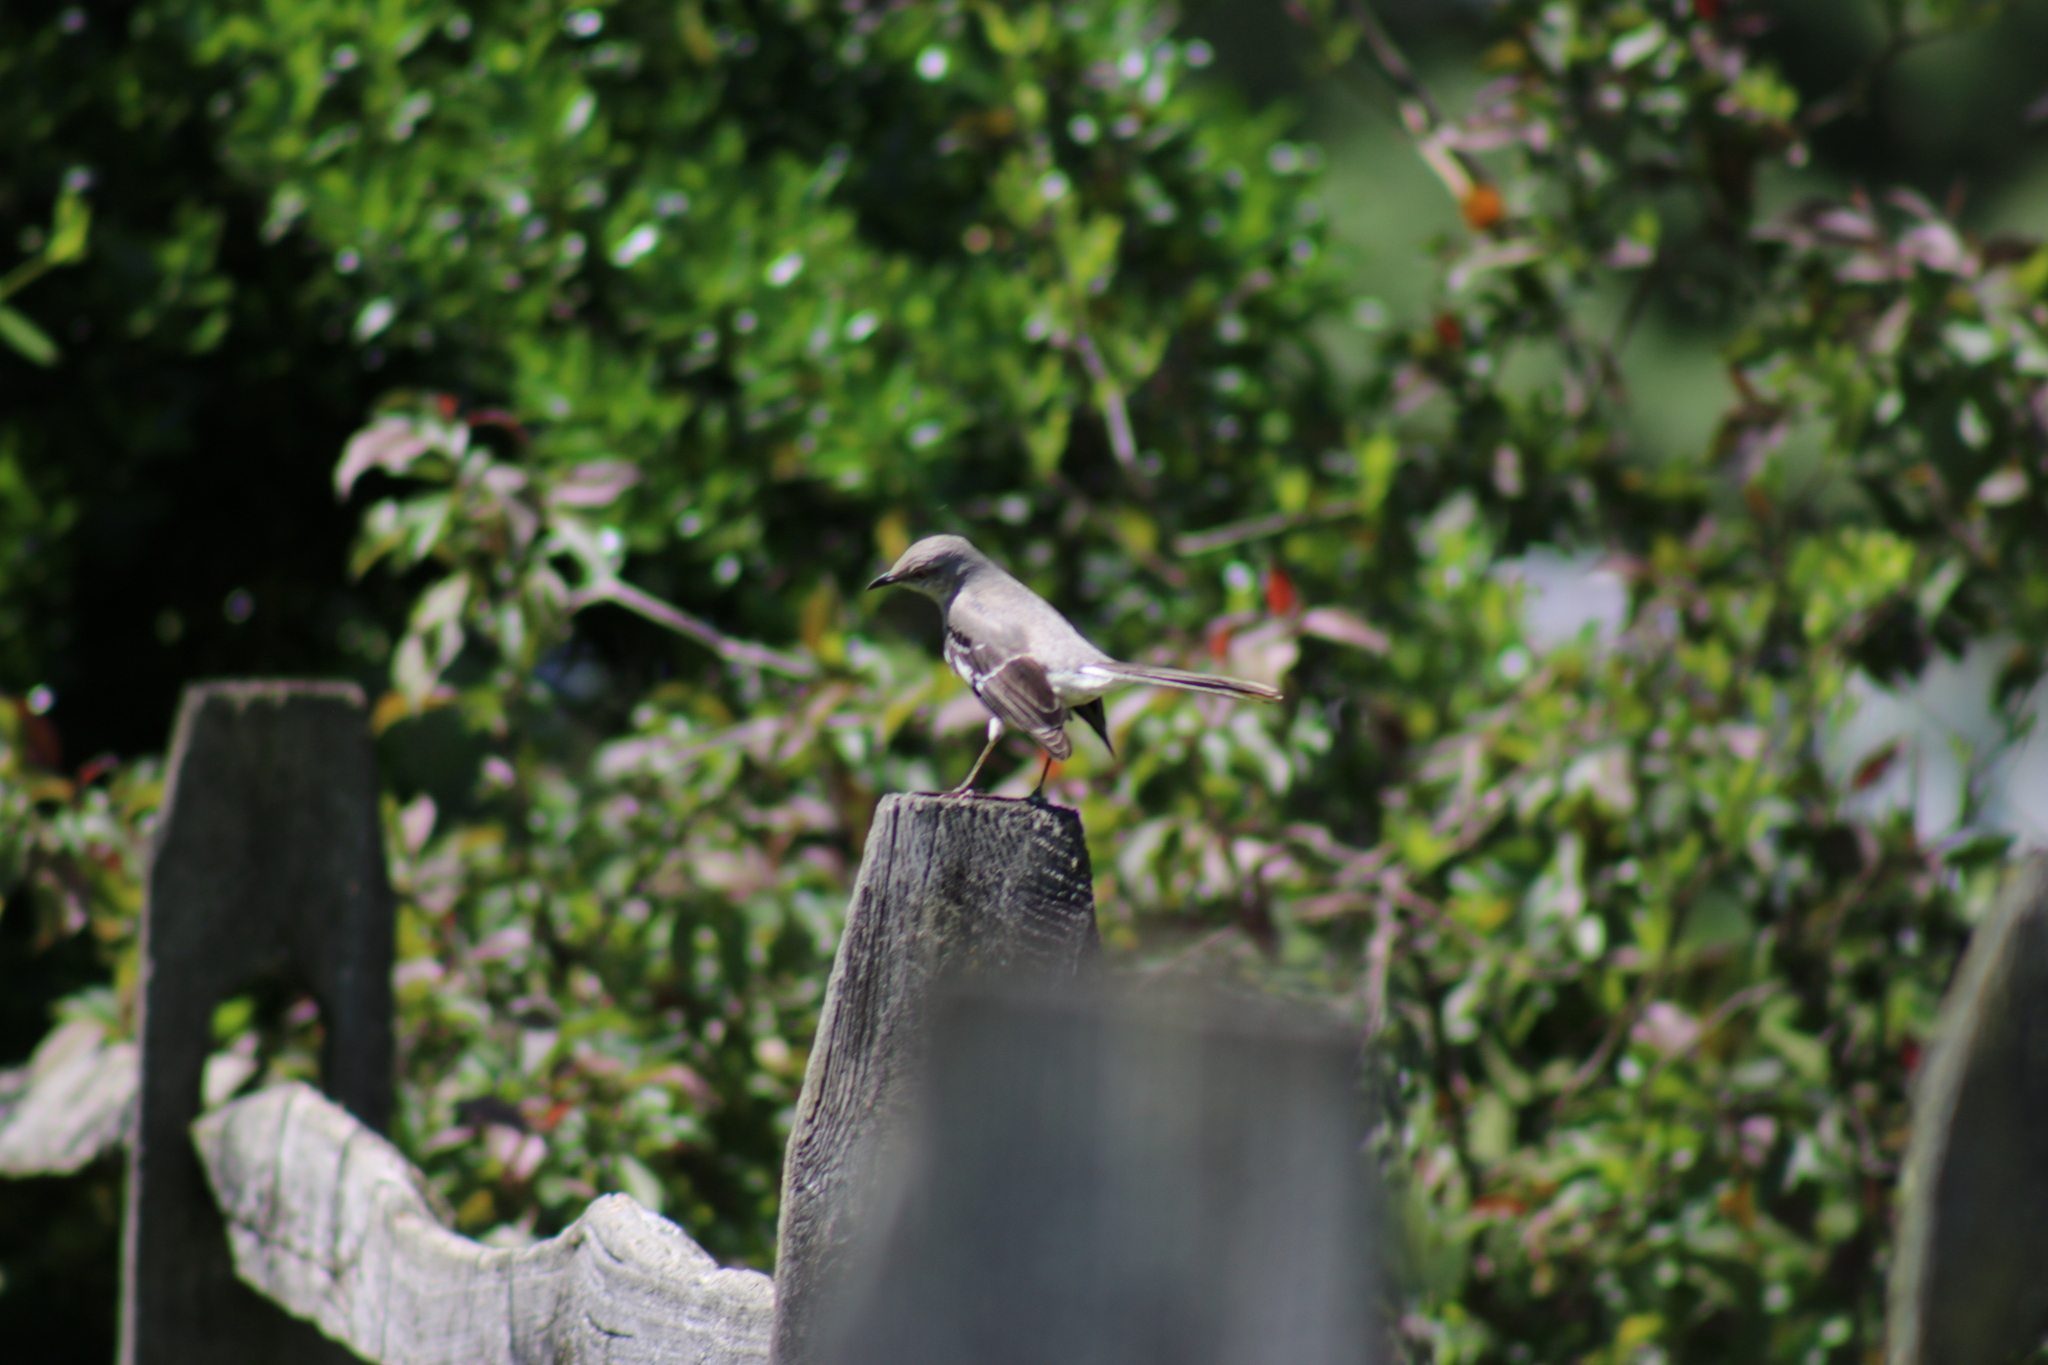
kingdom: Animalia
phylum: Chordata
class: Aves
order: Passeriformes
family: Mimidae
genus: Mimus
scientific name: Mimus polyglottos
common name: Northern mockingbird
